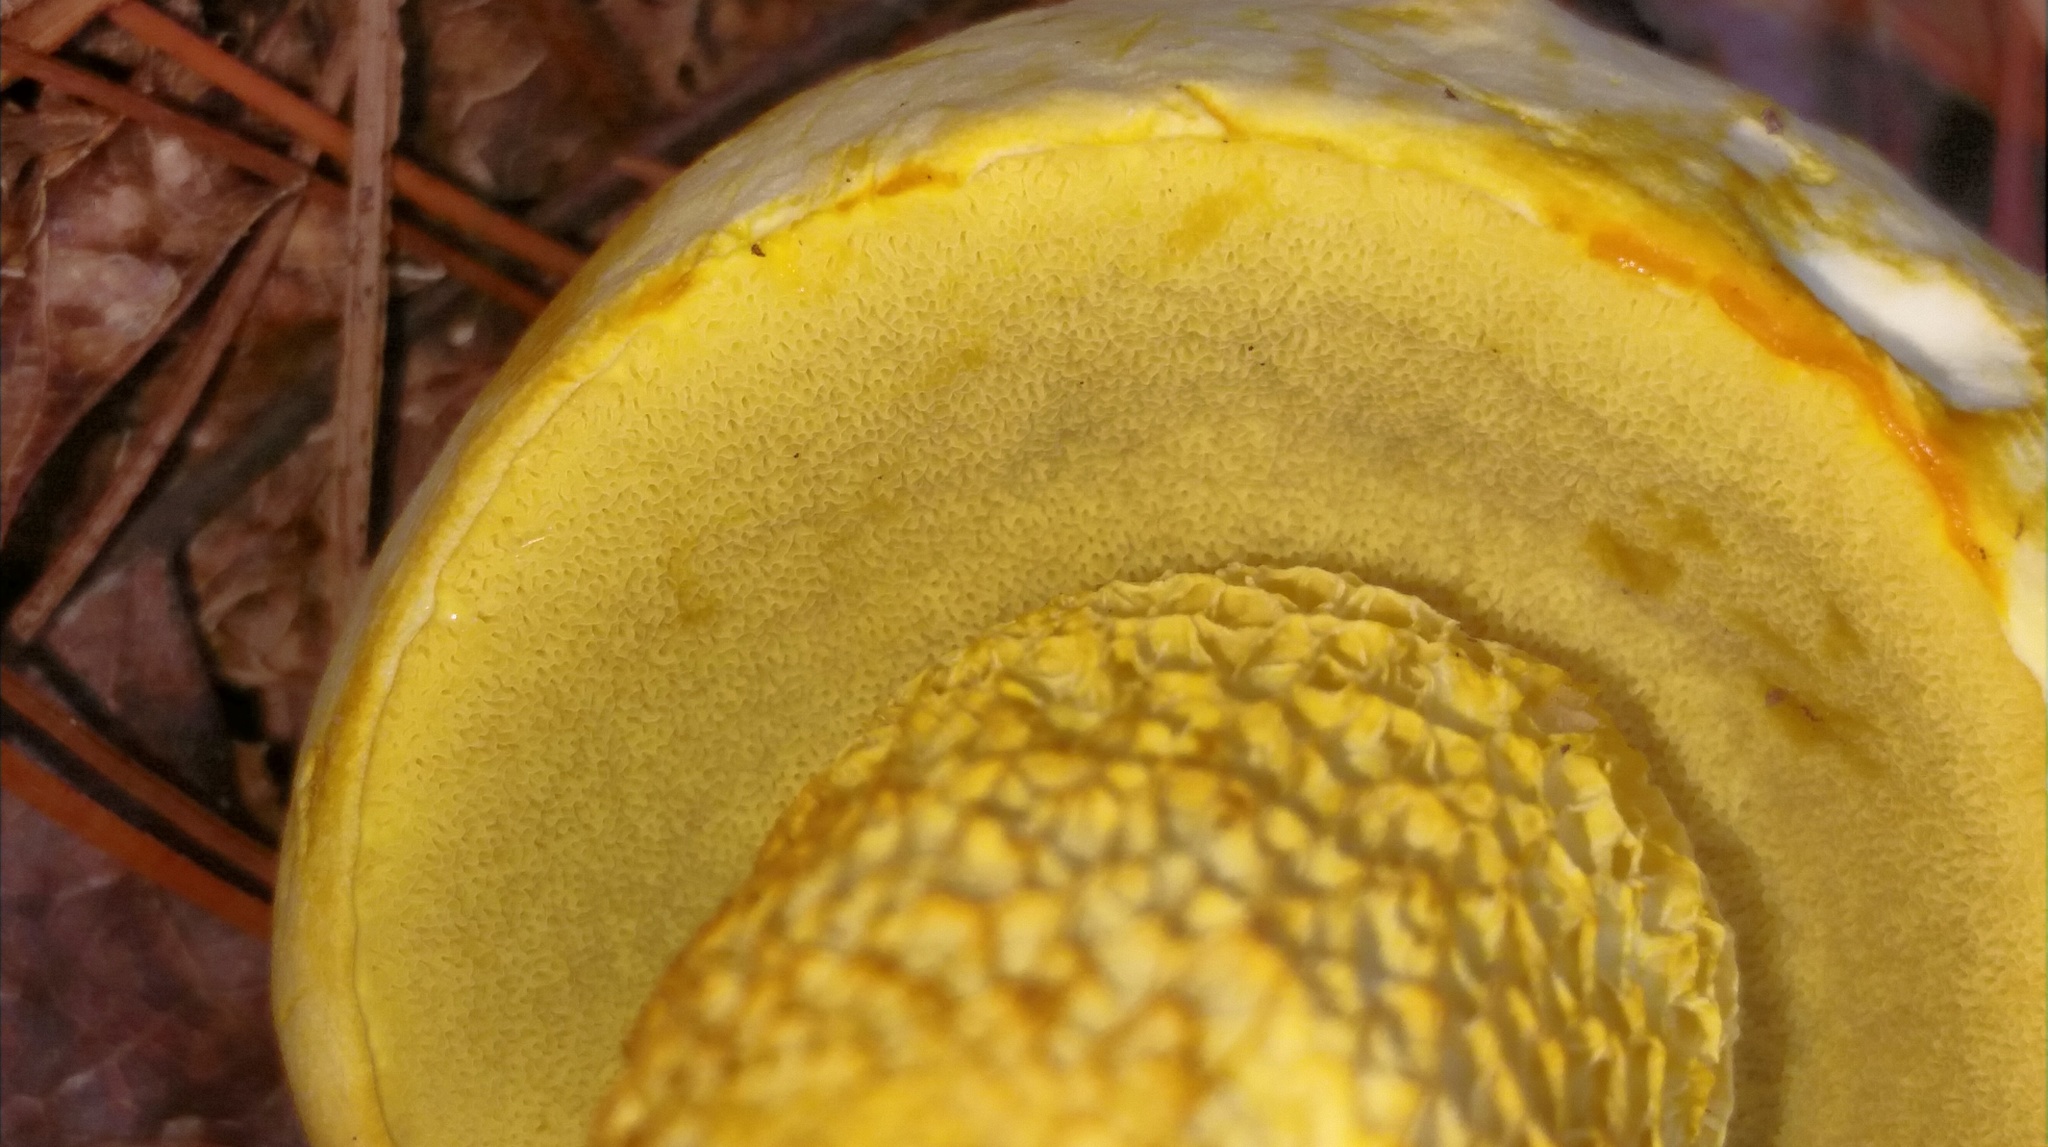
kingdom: Fungi
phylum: Basidiomycota
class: Agaricomycetes
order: Boletales
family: Boletaceae
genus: Retiboletus
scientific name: Retiboletus ornatipes
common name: Ornate-stalked bolete
